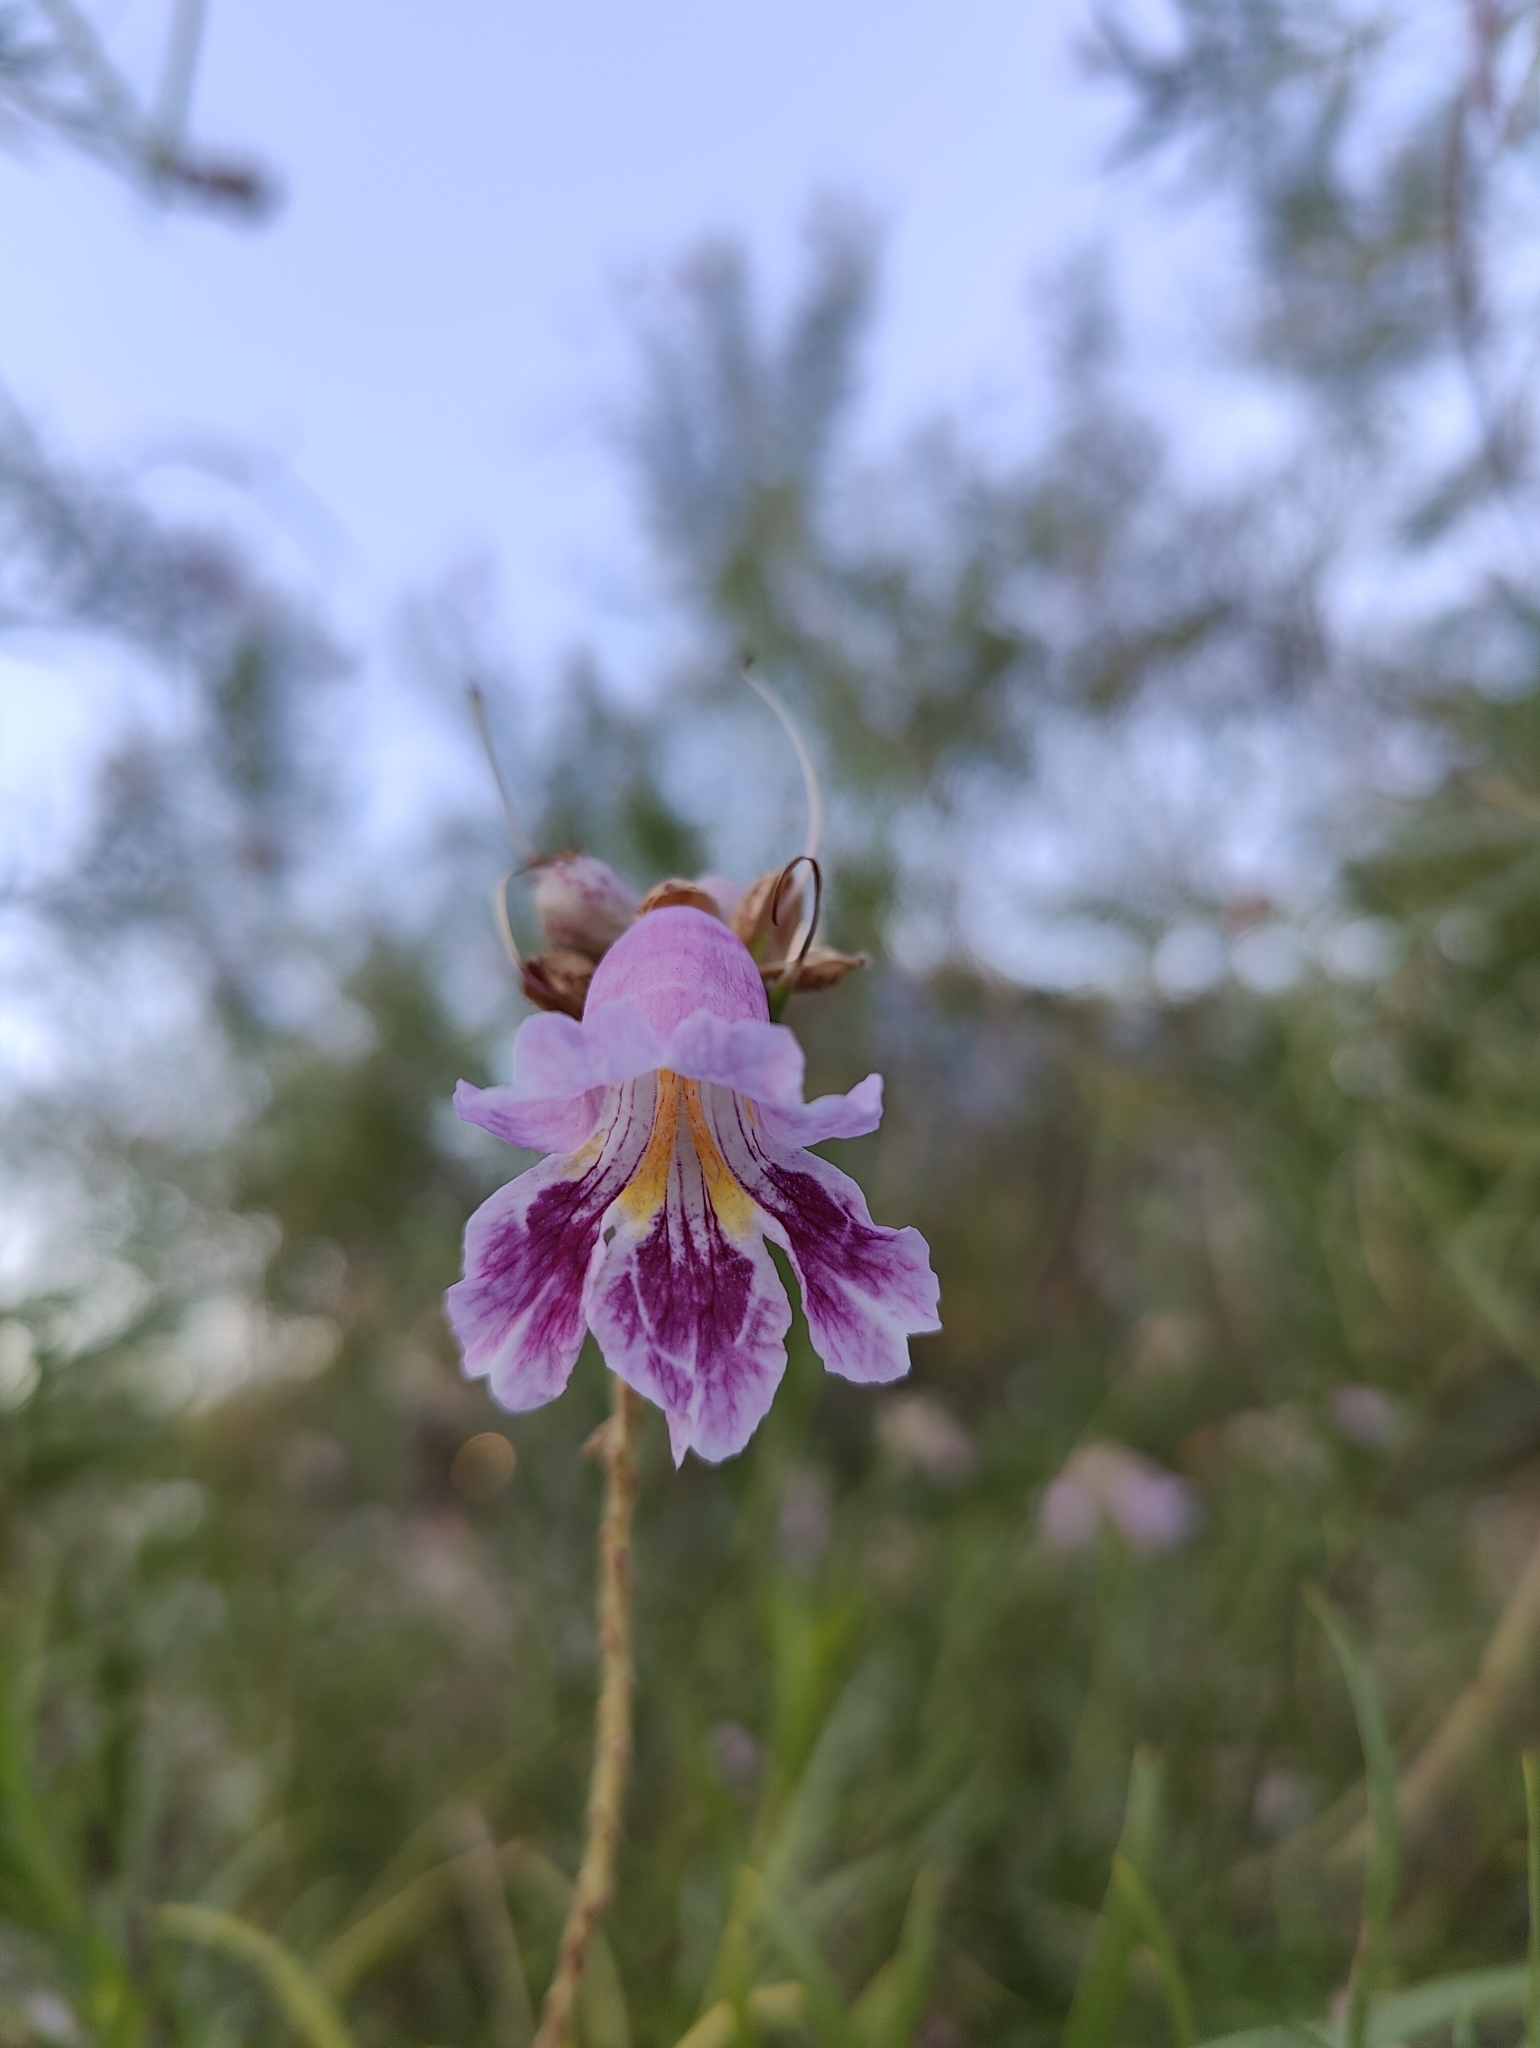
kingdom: Plantae
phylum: Tracheophyta
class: Magnoliopsida
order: Lamiales
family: Bignoniaceae
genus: Chilopsis
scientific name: Chilopsis linearis
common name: Desert-willow
